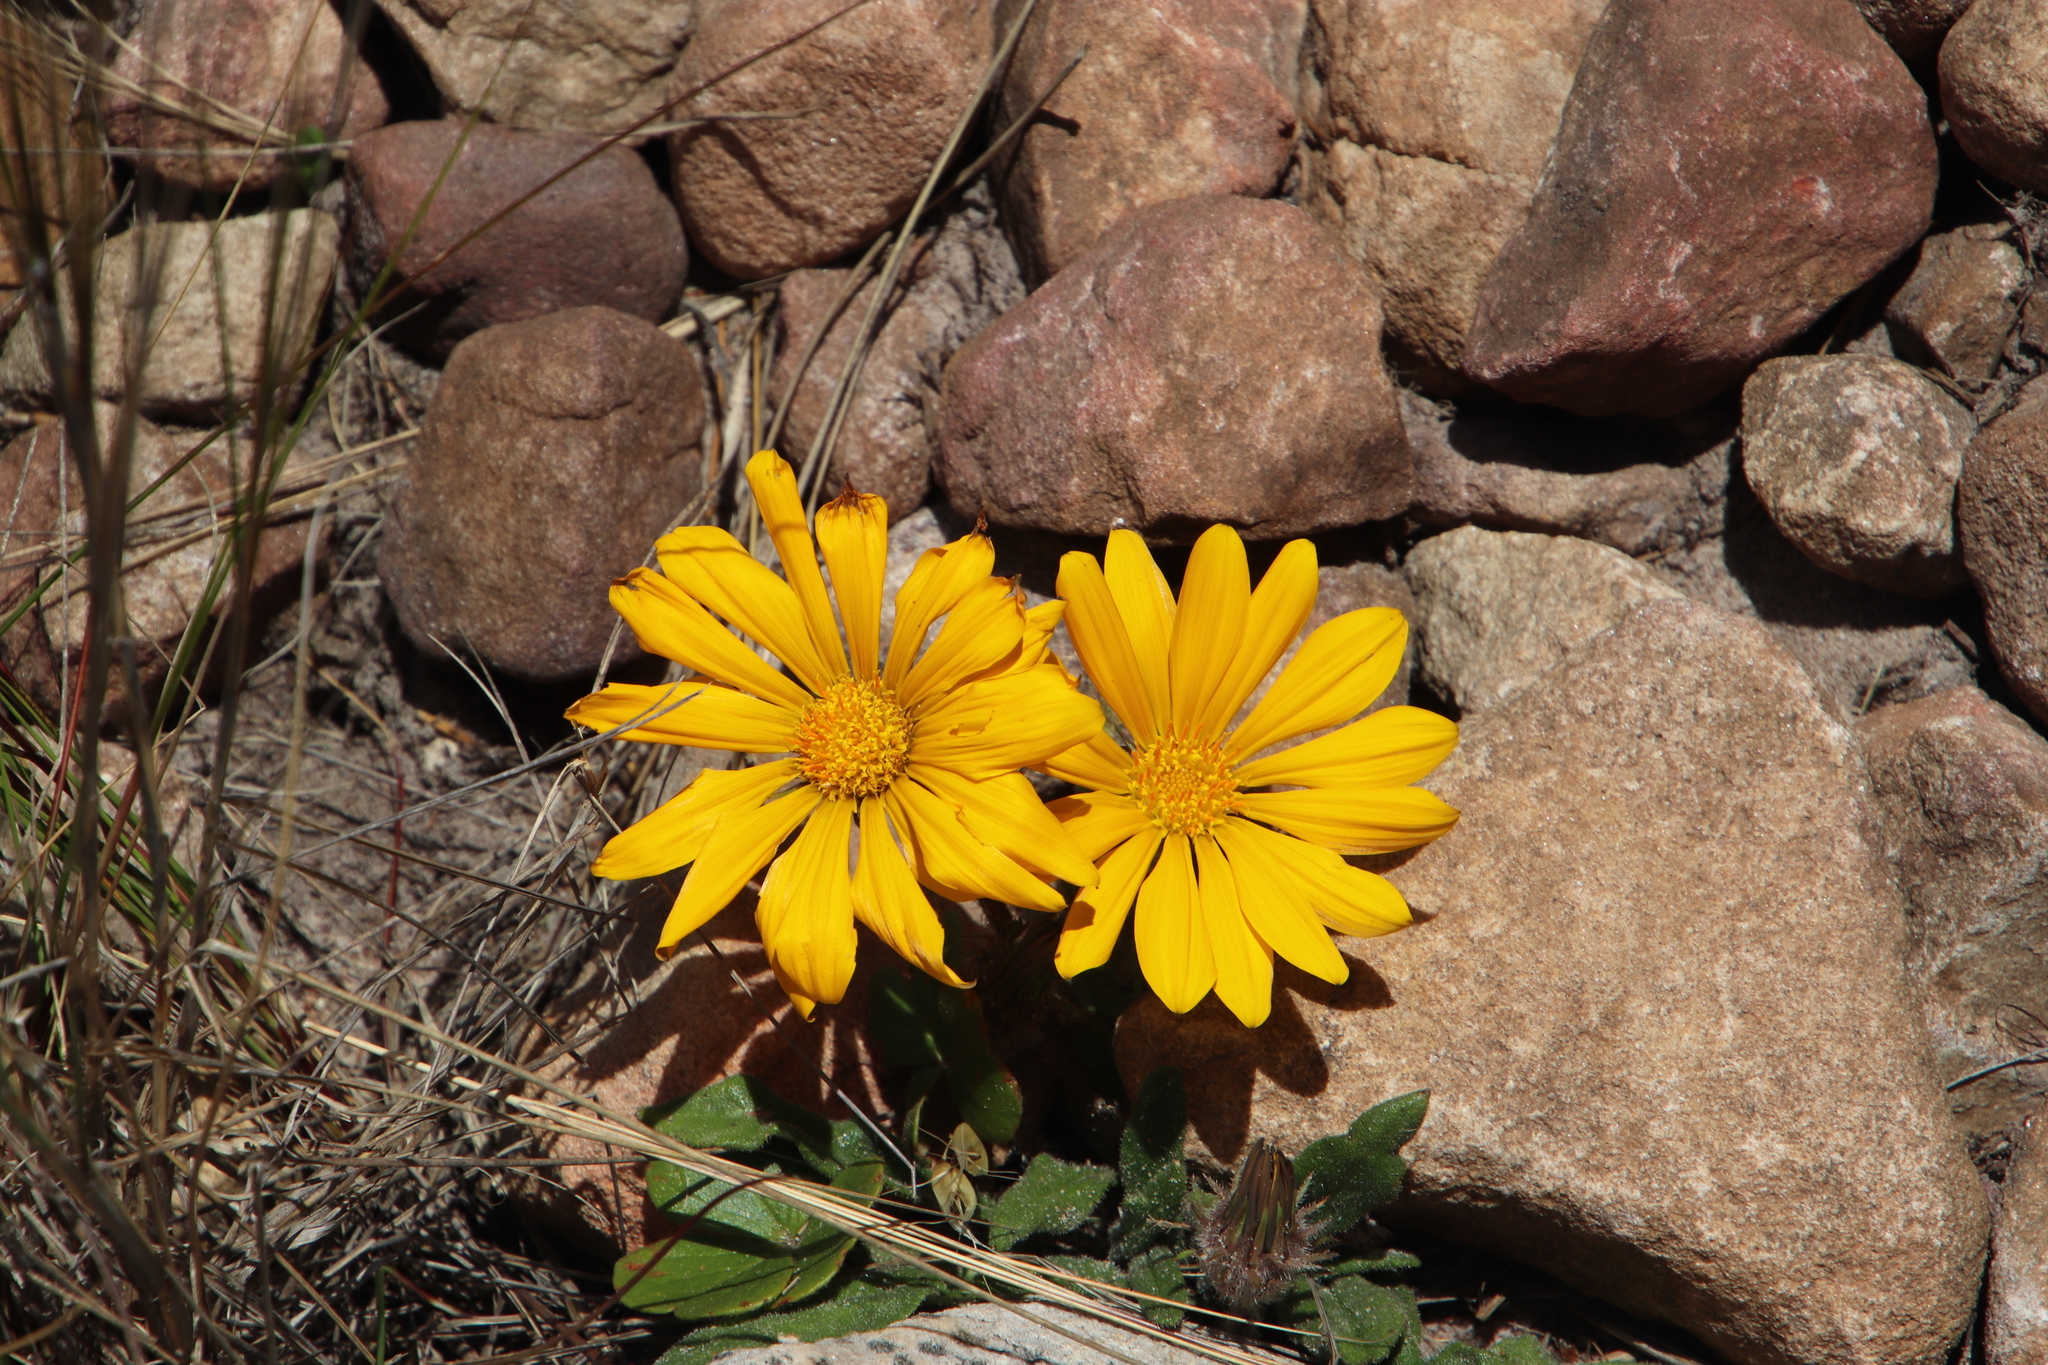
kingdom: Plantae
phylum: Tracheophyta
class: Magnoliopsida
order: Asterales
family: Asteraceae
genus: Gazania
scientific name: Gazania serrata
